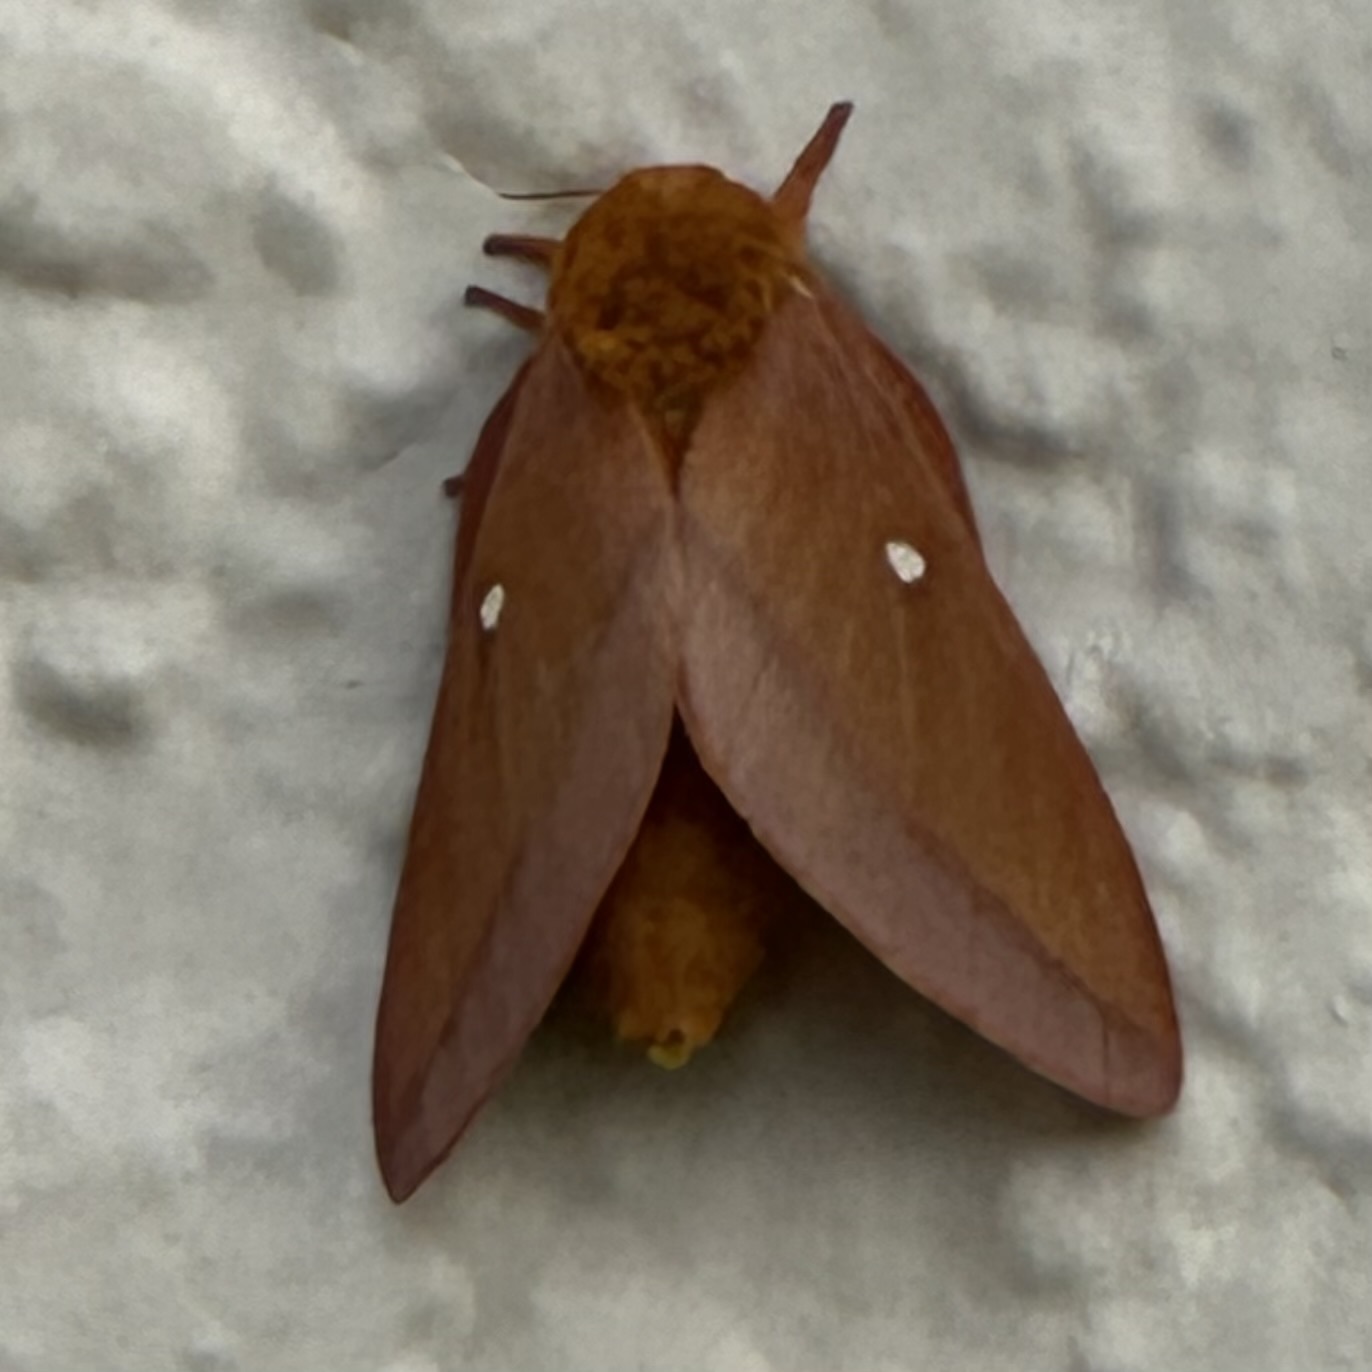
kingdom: Animalia
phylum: Arthropoda
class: Insecta
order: Lepidoptera
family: Saturniidae
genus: Anisota
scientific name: Anisota virginiensis
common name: Pink striped oakworm moth
